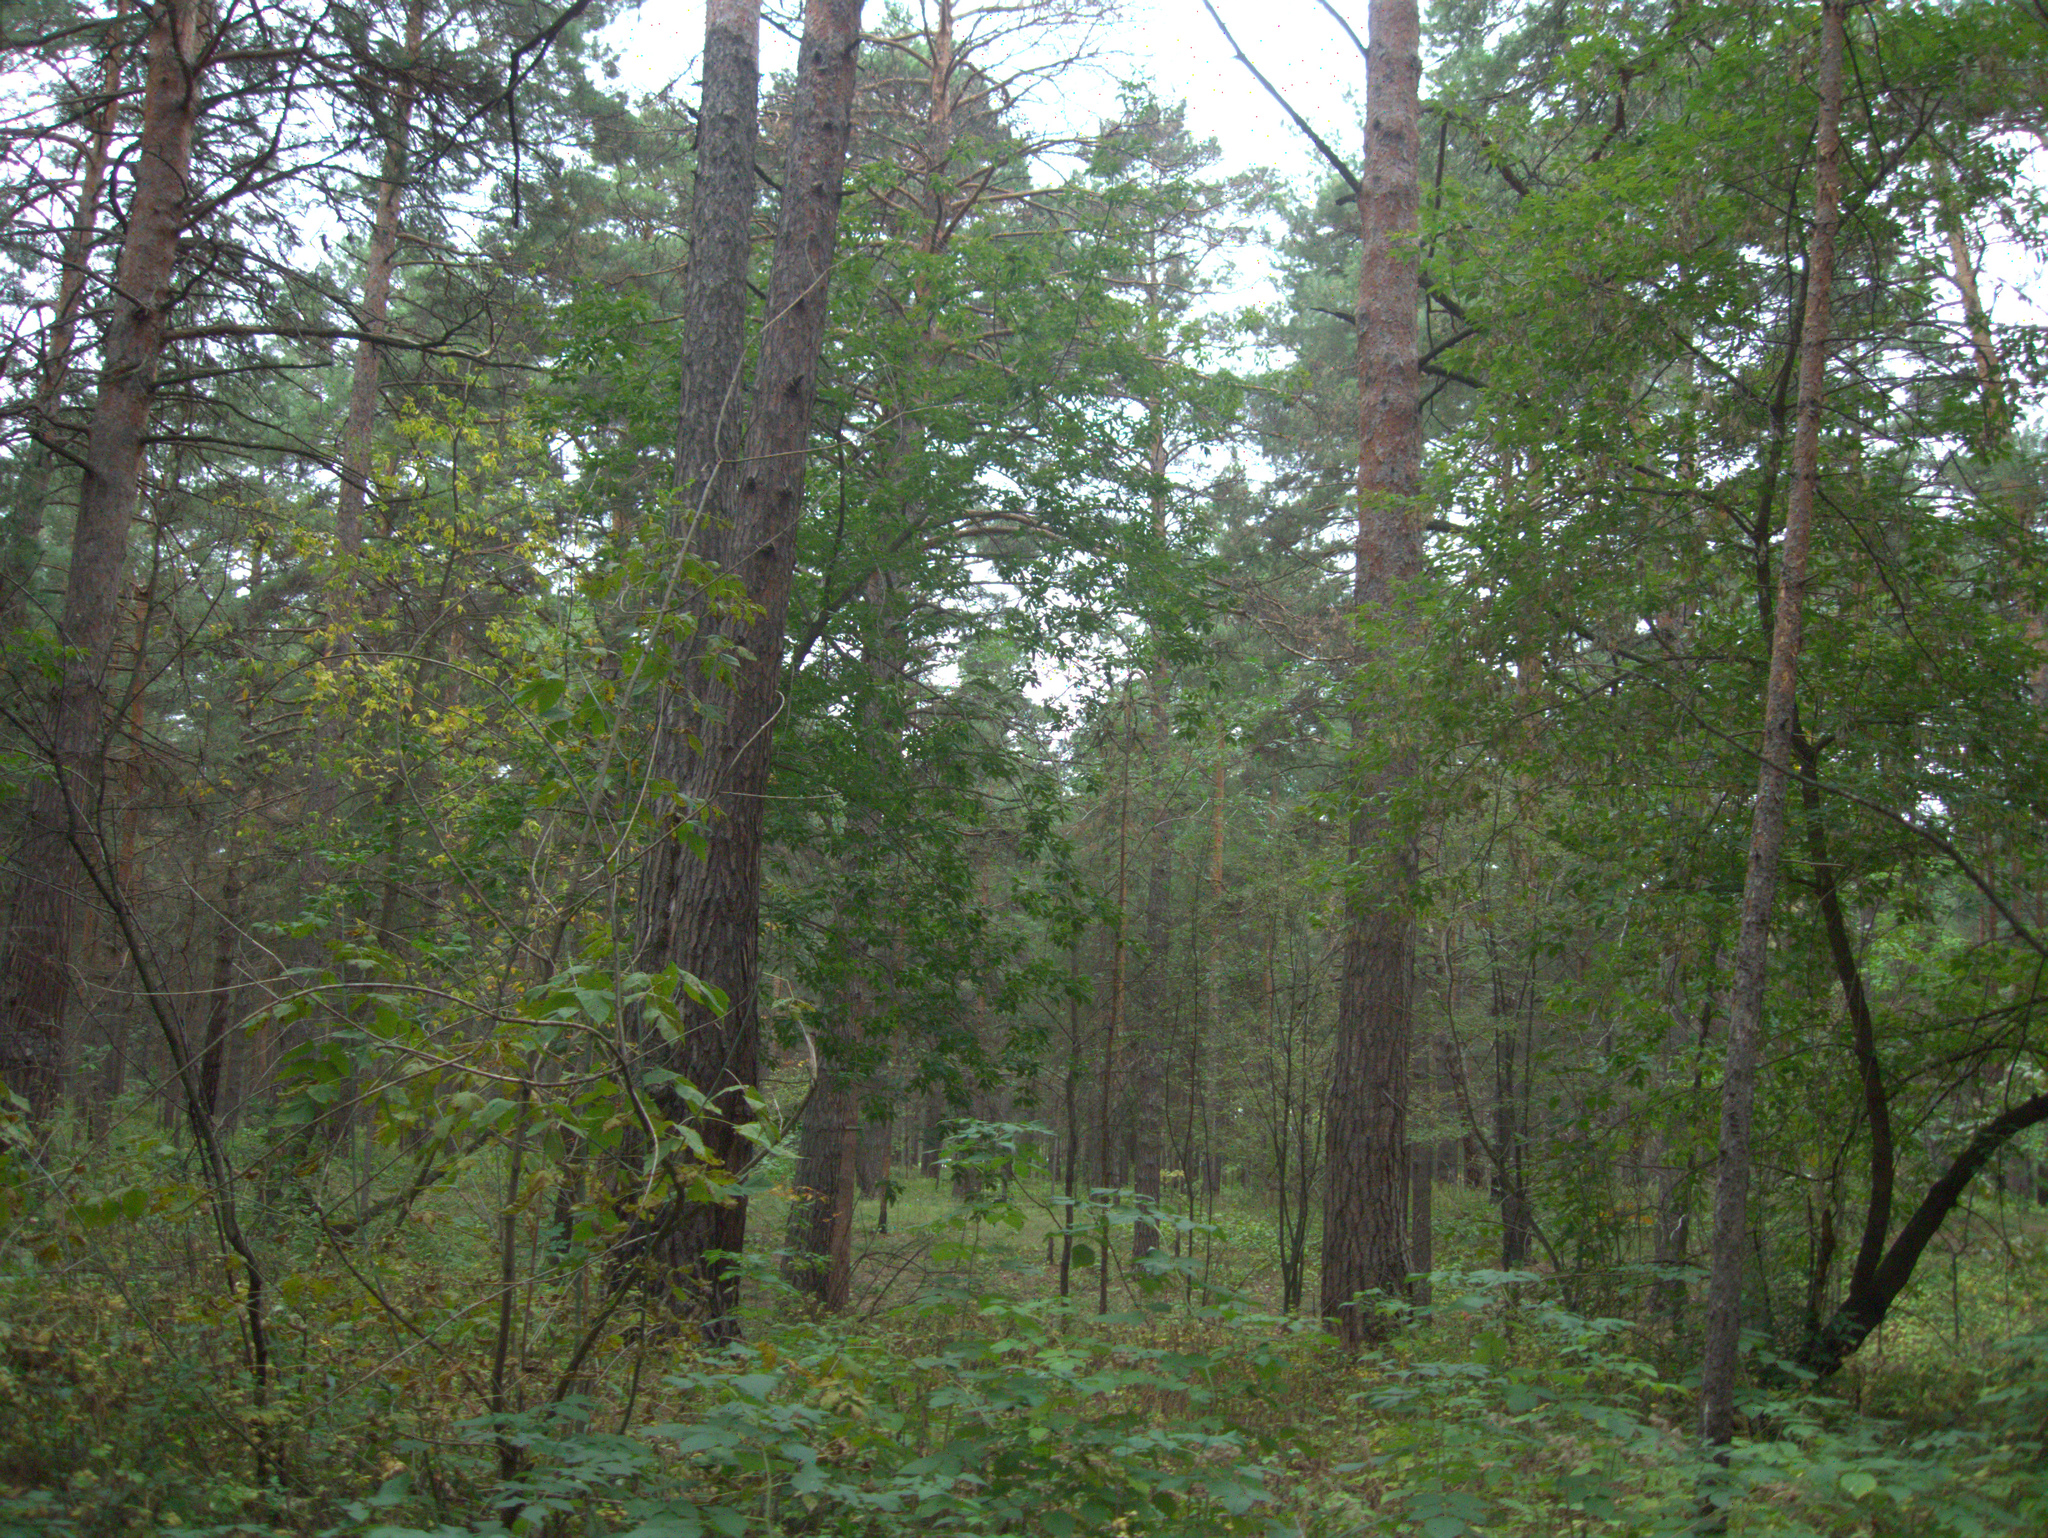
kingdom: Plantae
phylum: Tracheophyta
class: Magnoliopsida
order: Sapindales
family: Sapindaceae
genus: Acer
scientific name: Acer negundo
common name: Ashleaf maple
